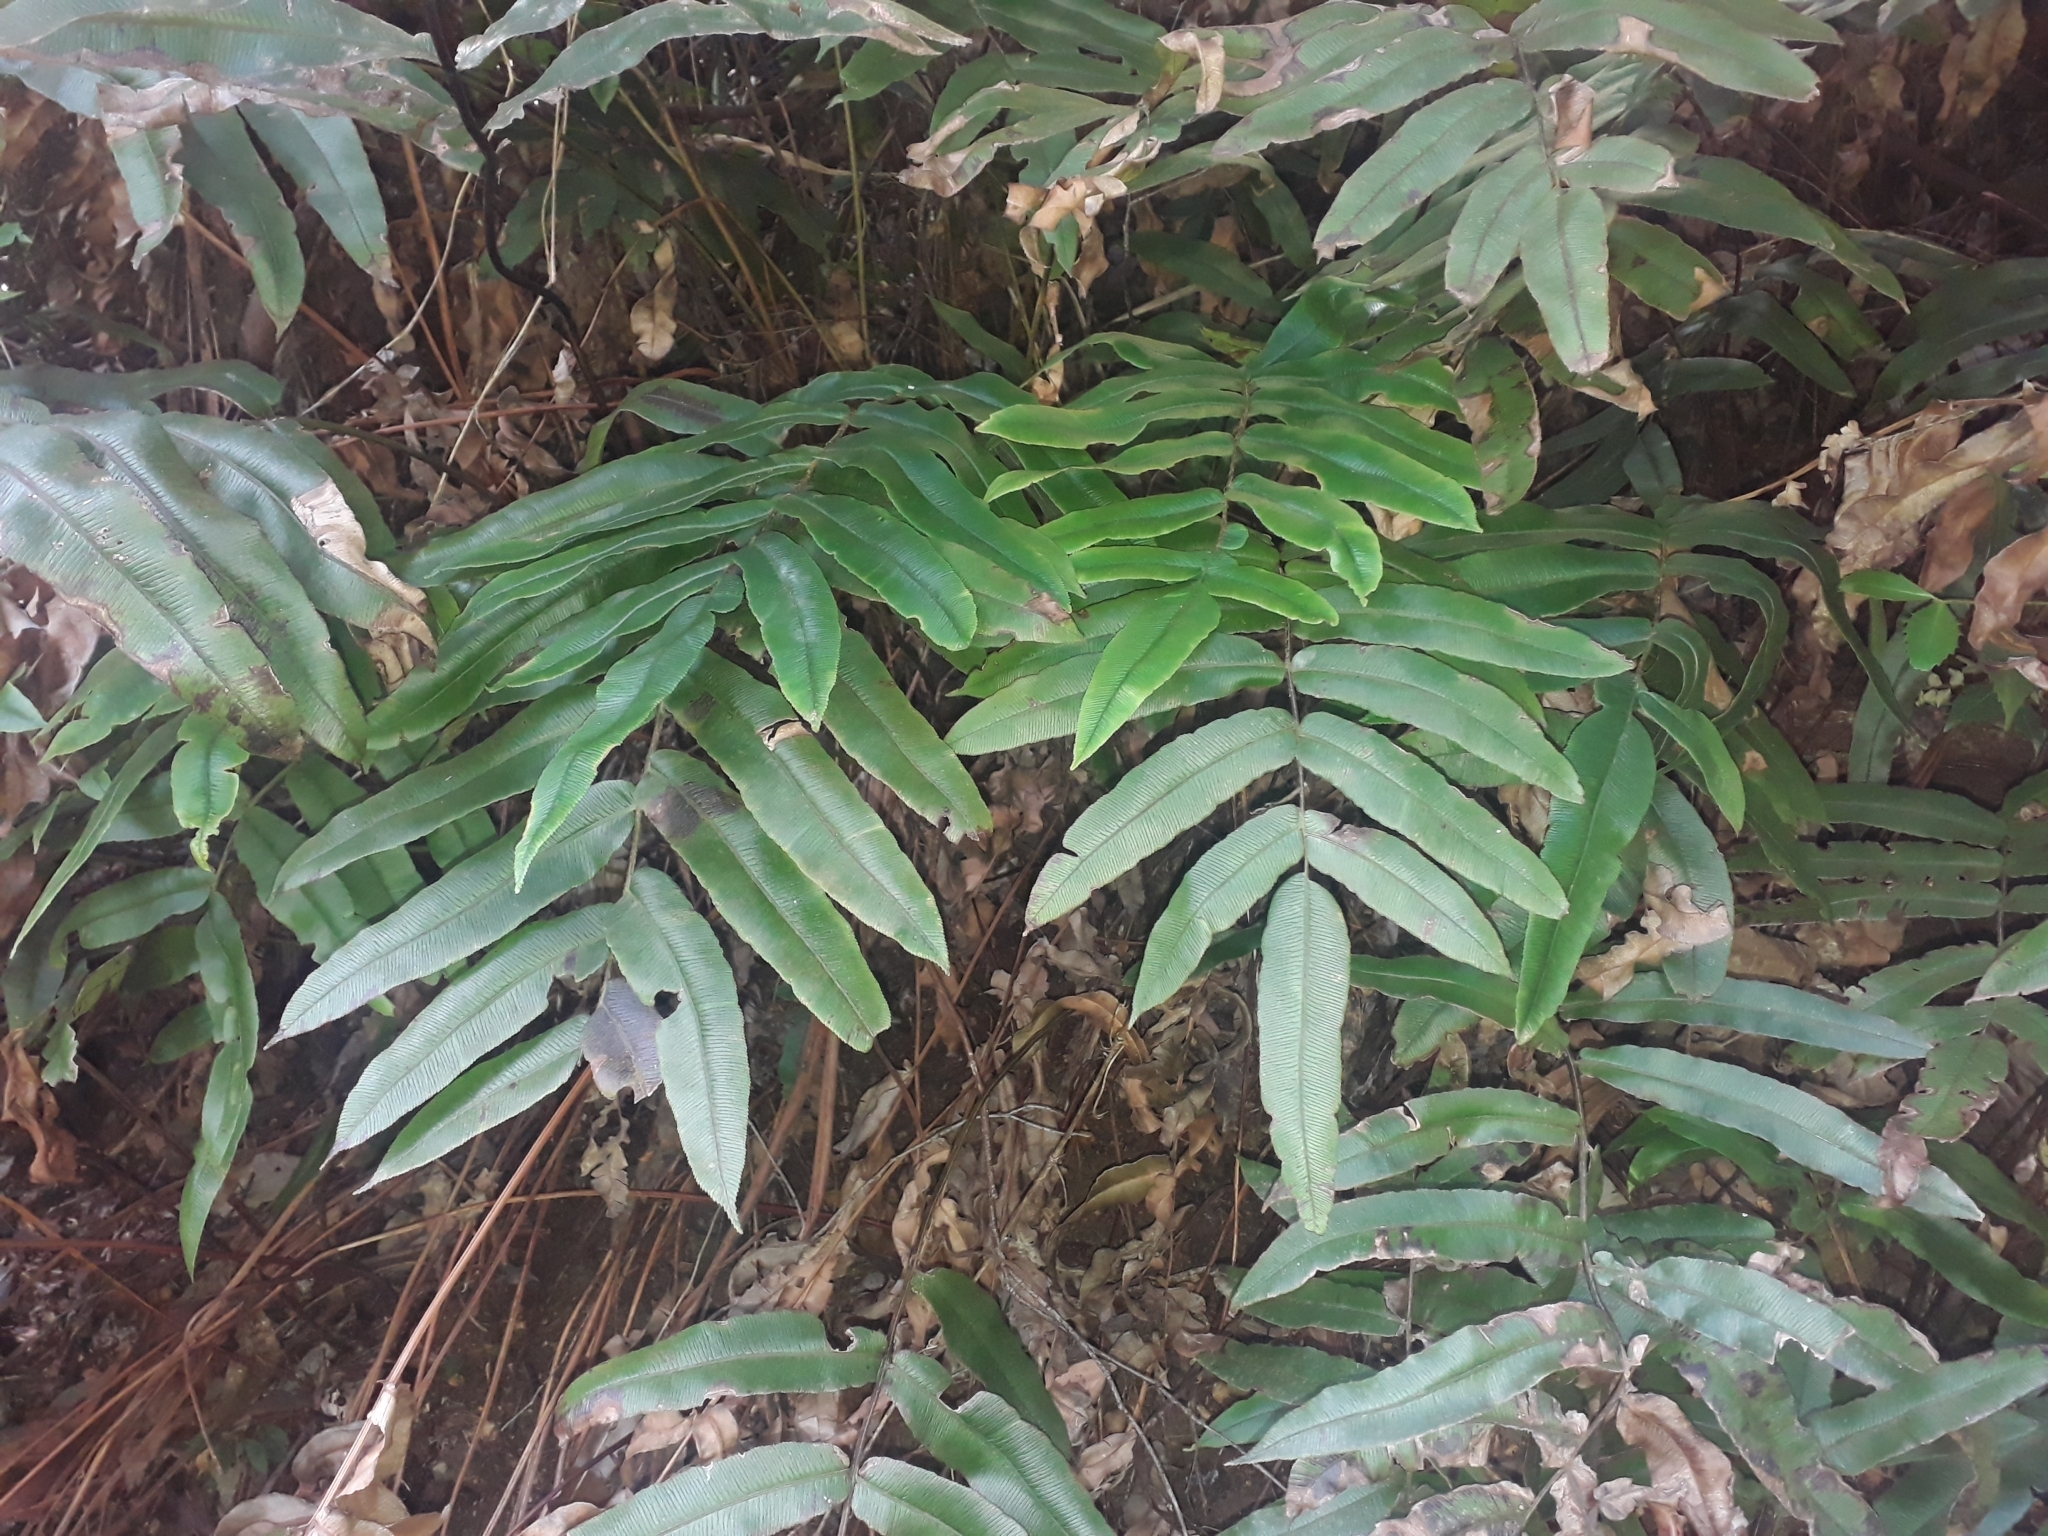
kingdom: Plantae
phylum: Tracheophyta
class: Polypodiopsida
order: Polypodiales
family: Blechnaceae
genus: Parablechnum
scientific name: Parablechnum wattsii
